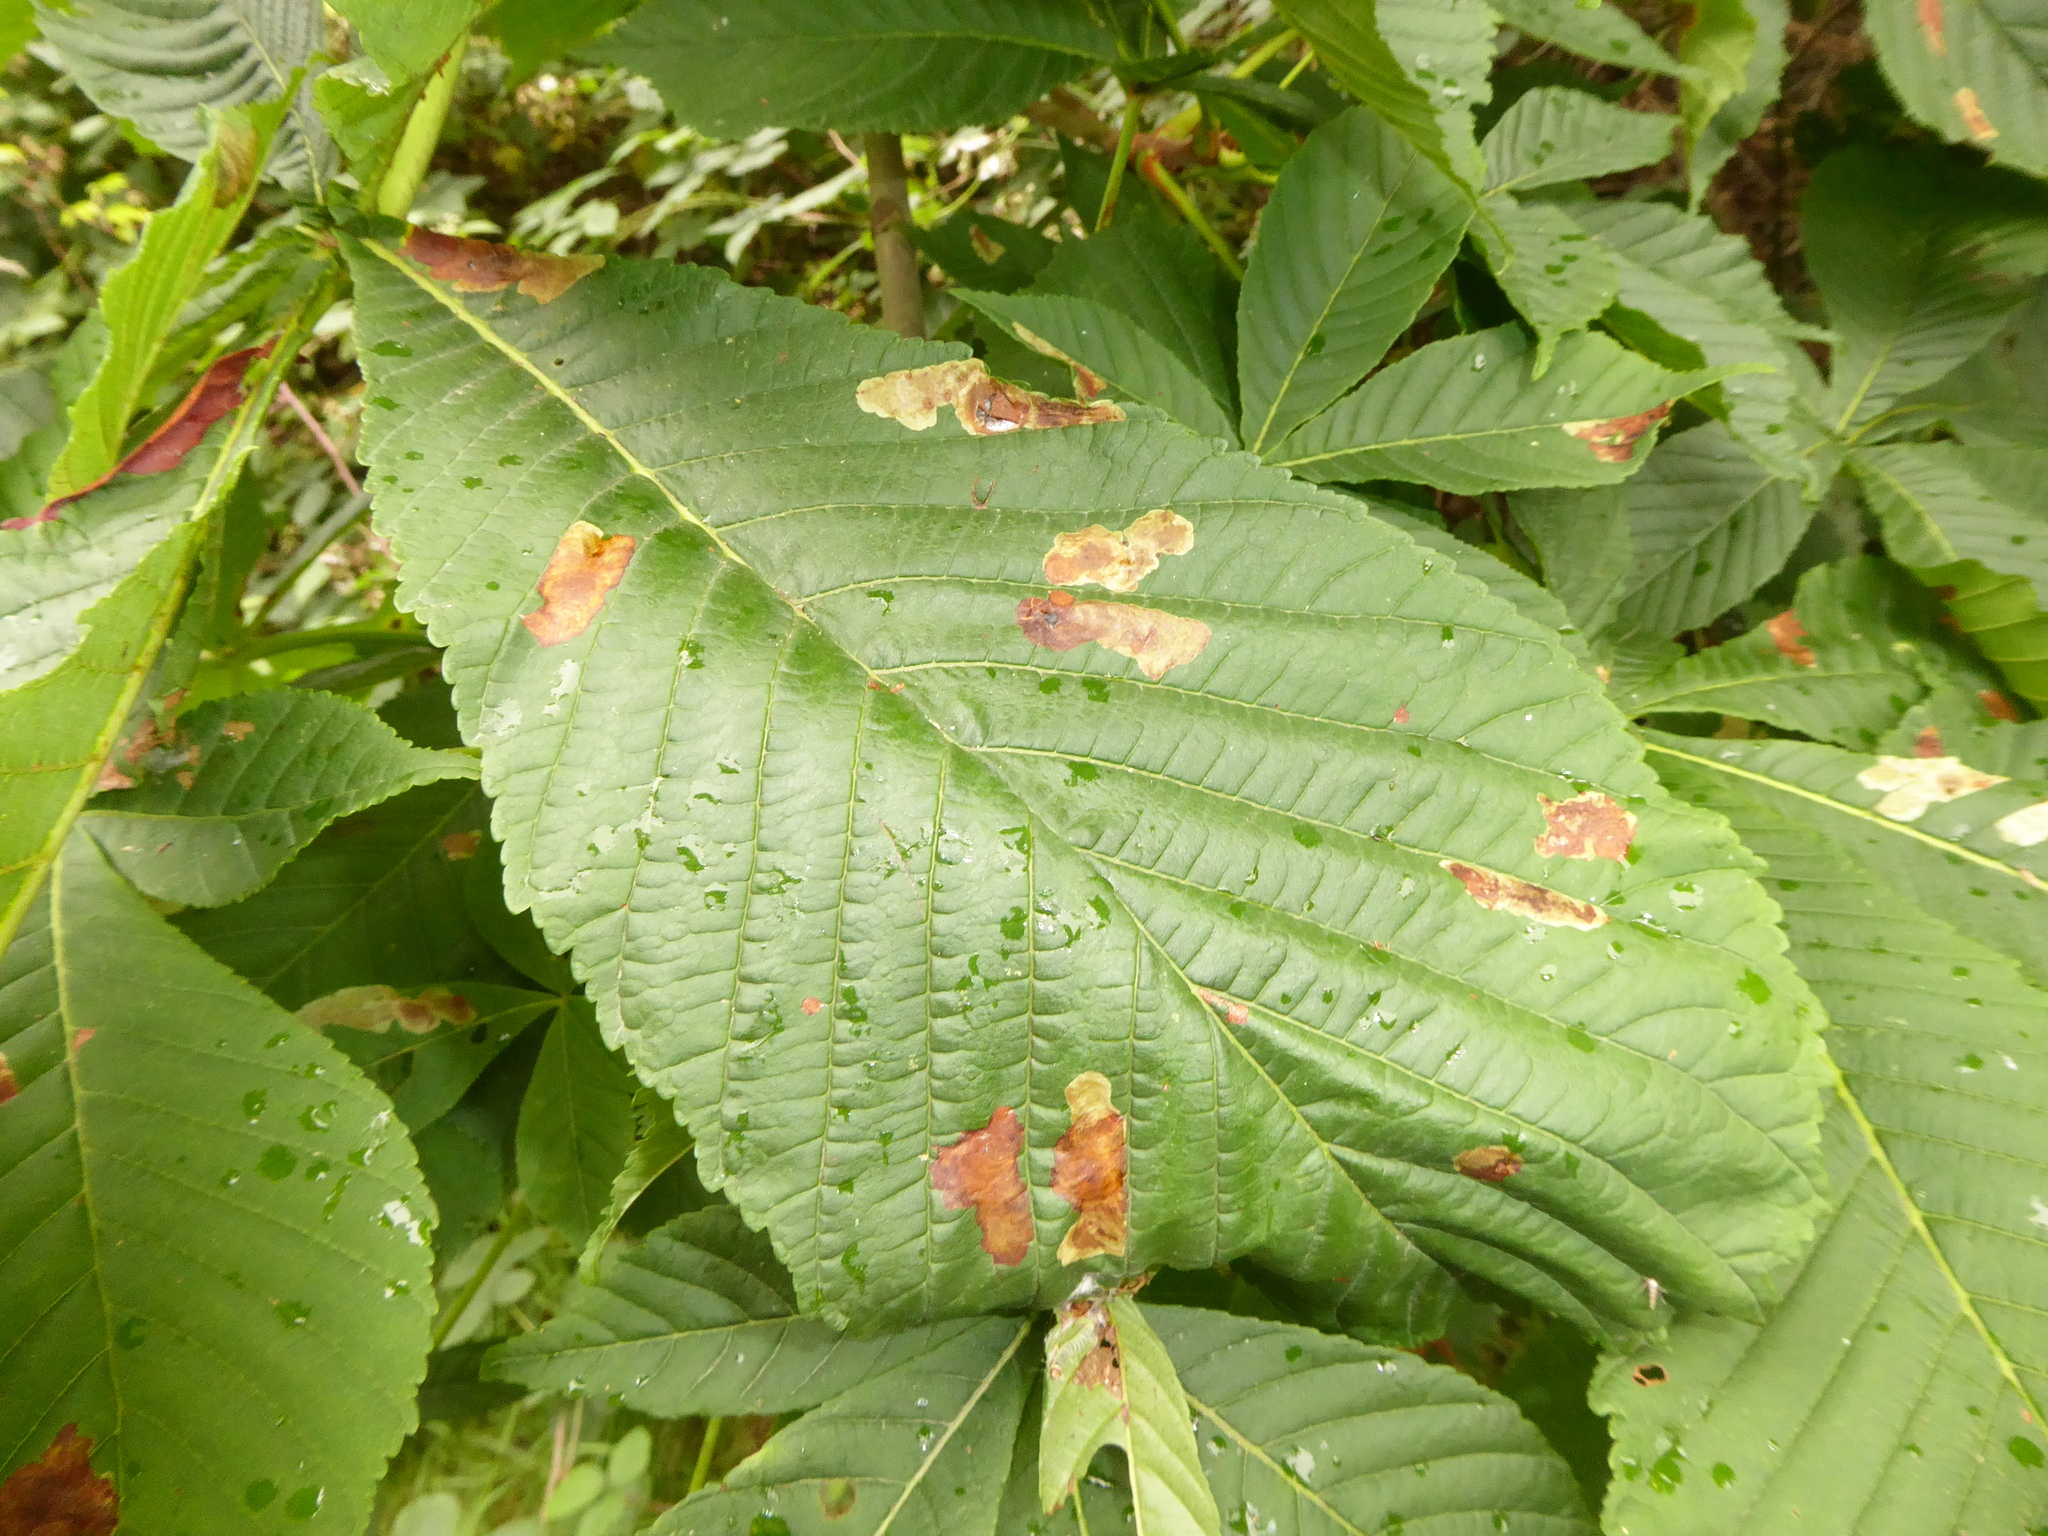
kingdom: Animalia
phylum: Arthropoda
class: Insecta
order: Lepidoptera
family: Gracillariidae
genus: Cameraria
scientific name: Cameraria ohridella
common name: Horse-chestnut leaf-miner
